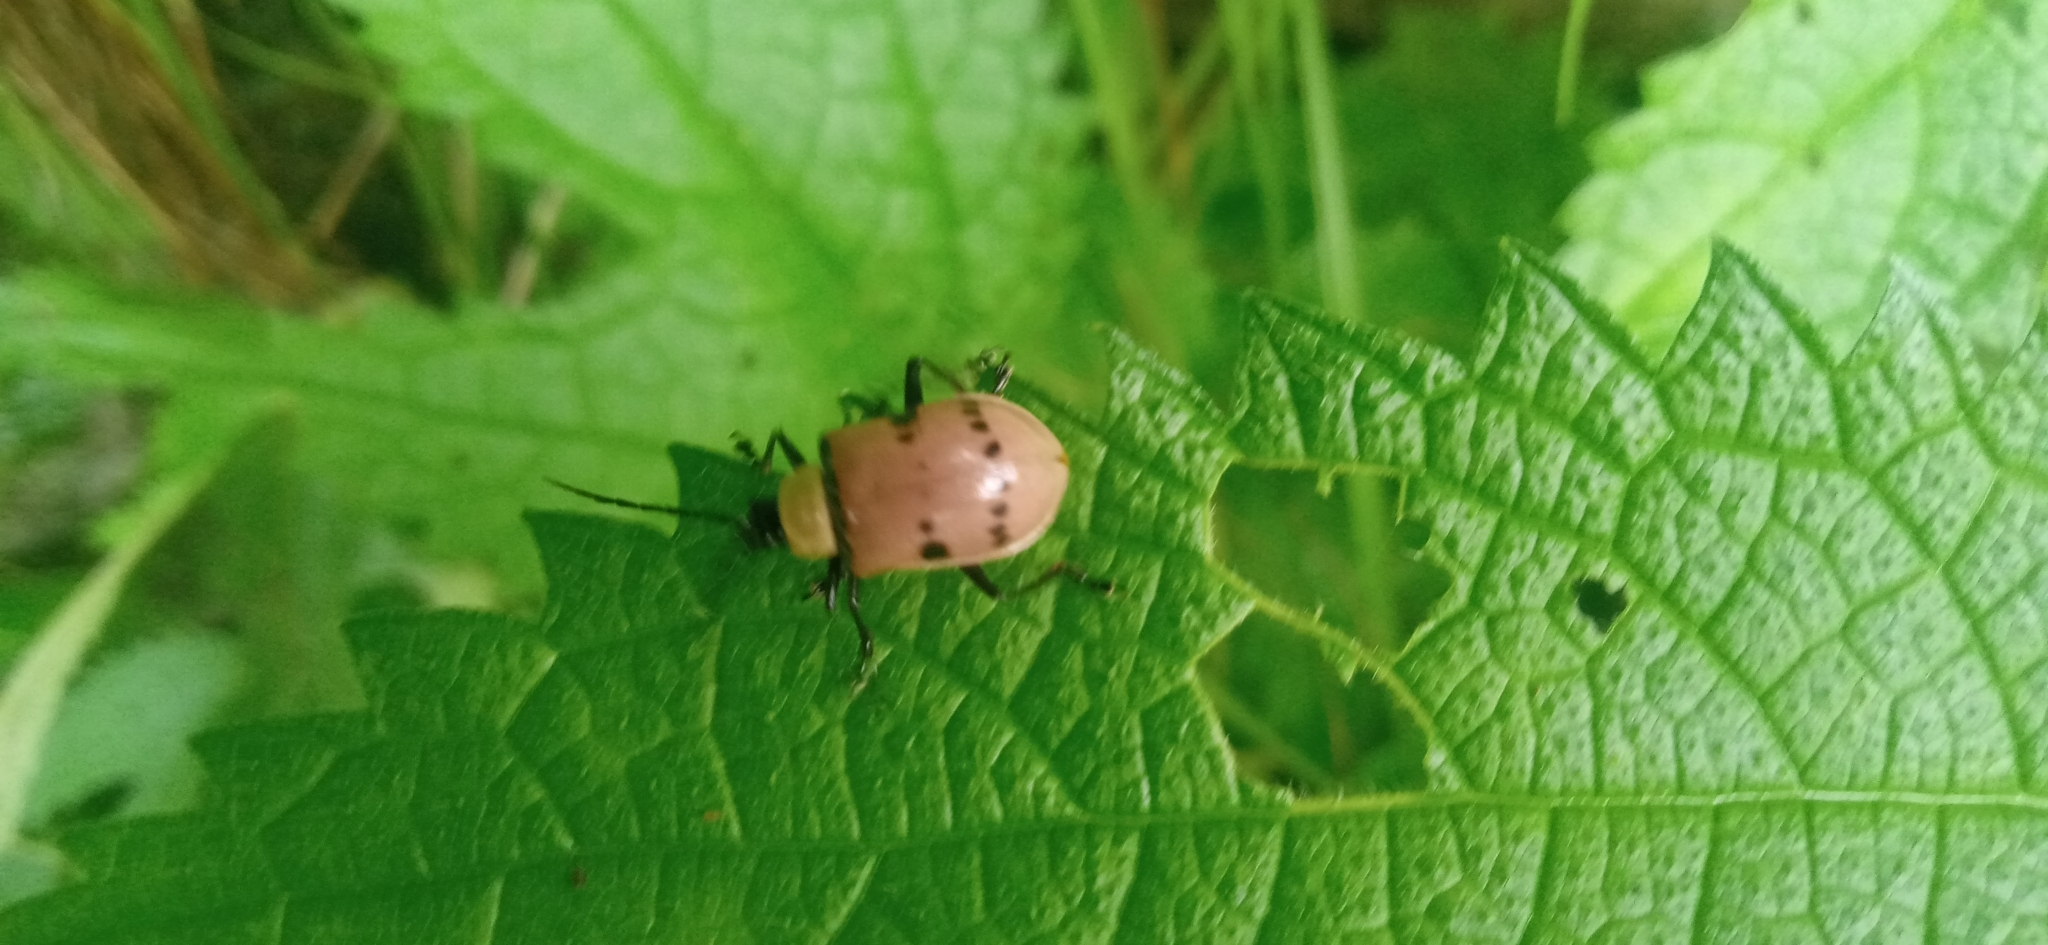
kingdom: Animalia
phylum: Arthropoda
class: Insecta
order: Coleoptera
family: Chrysomelidae
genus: Meristata
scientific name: Meristata
